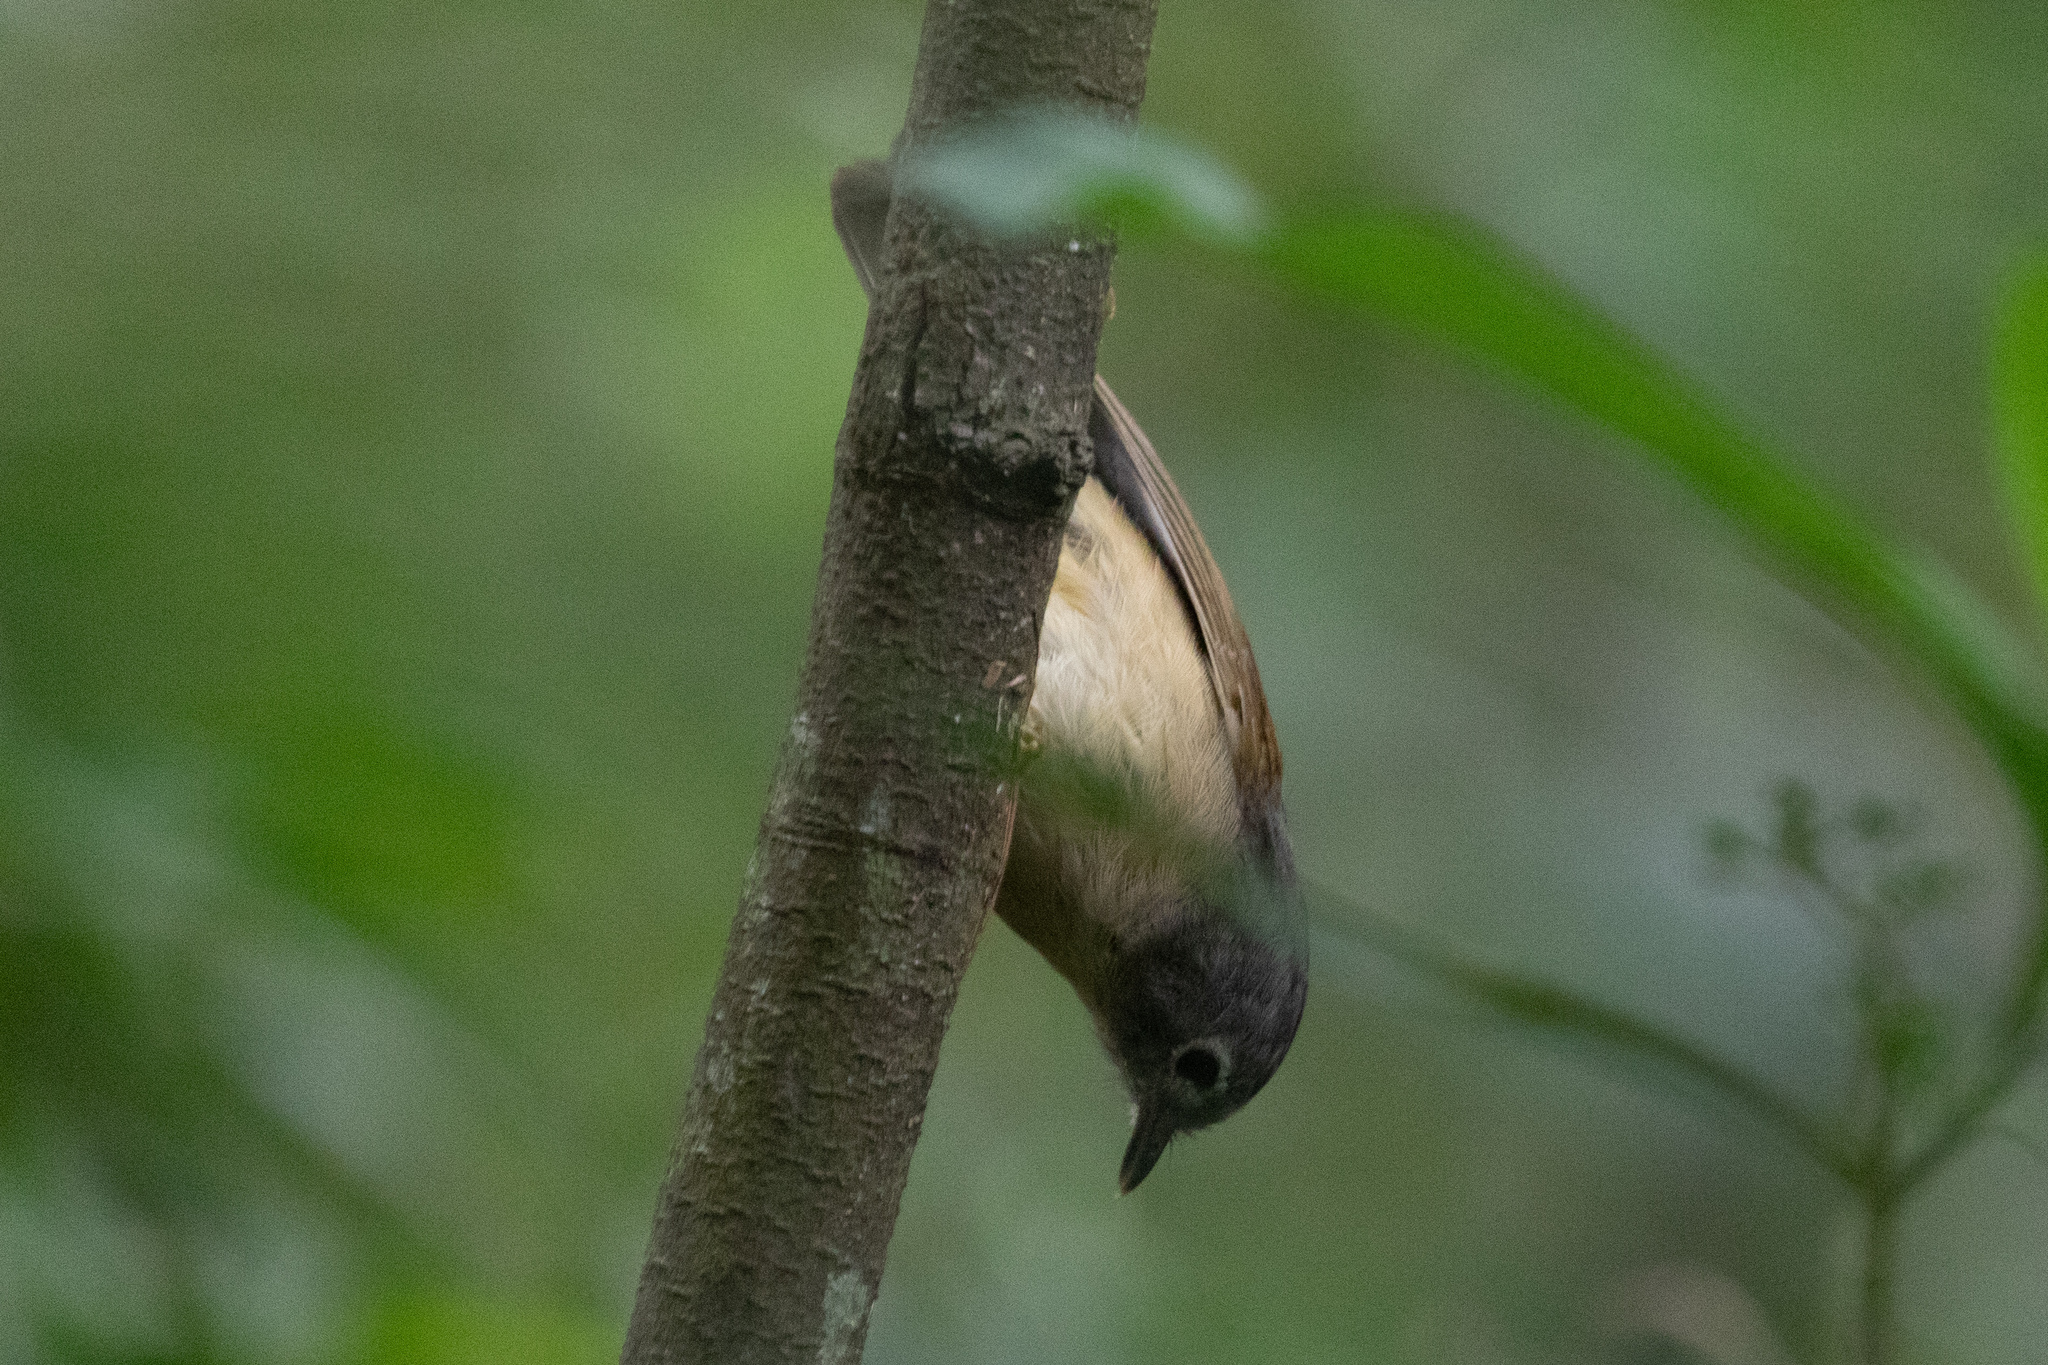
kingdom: Animalia
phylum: Chordata
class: Aves
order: Passeriformes
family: Pellorneidae
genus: Alcippe
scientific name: Alcippe hueti
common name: Huet's fulvetta
